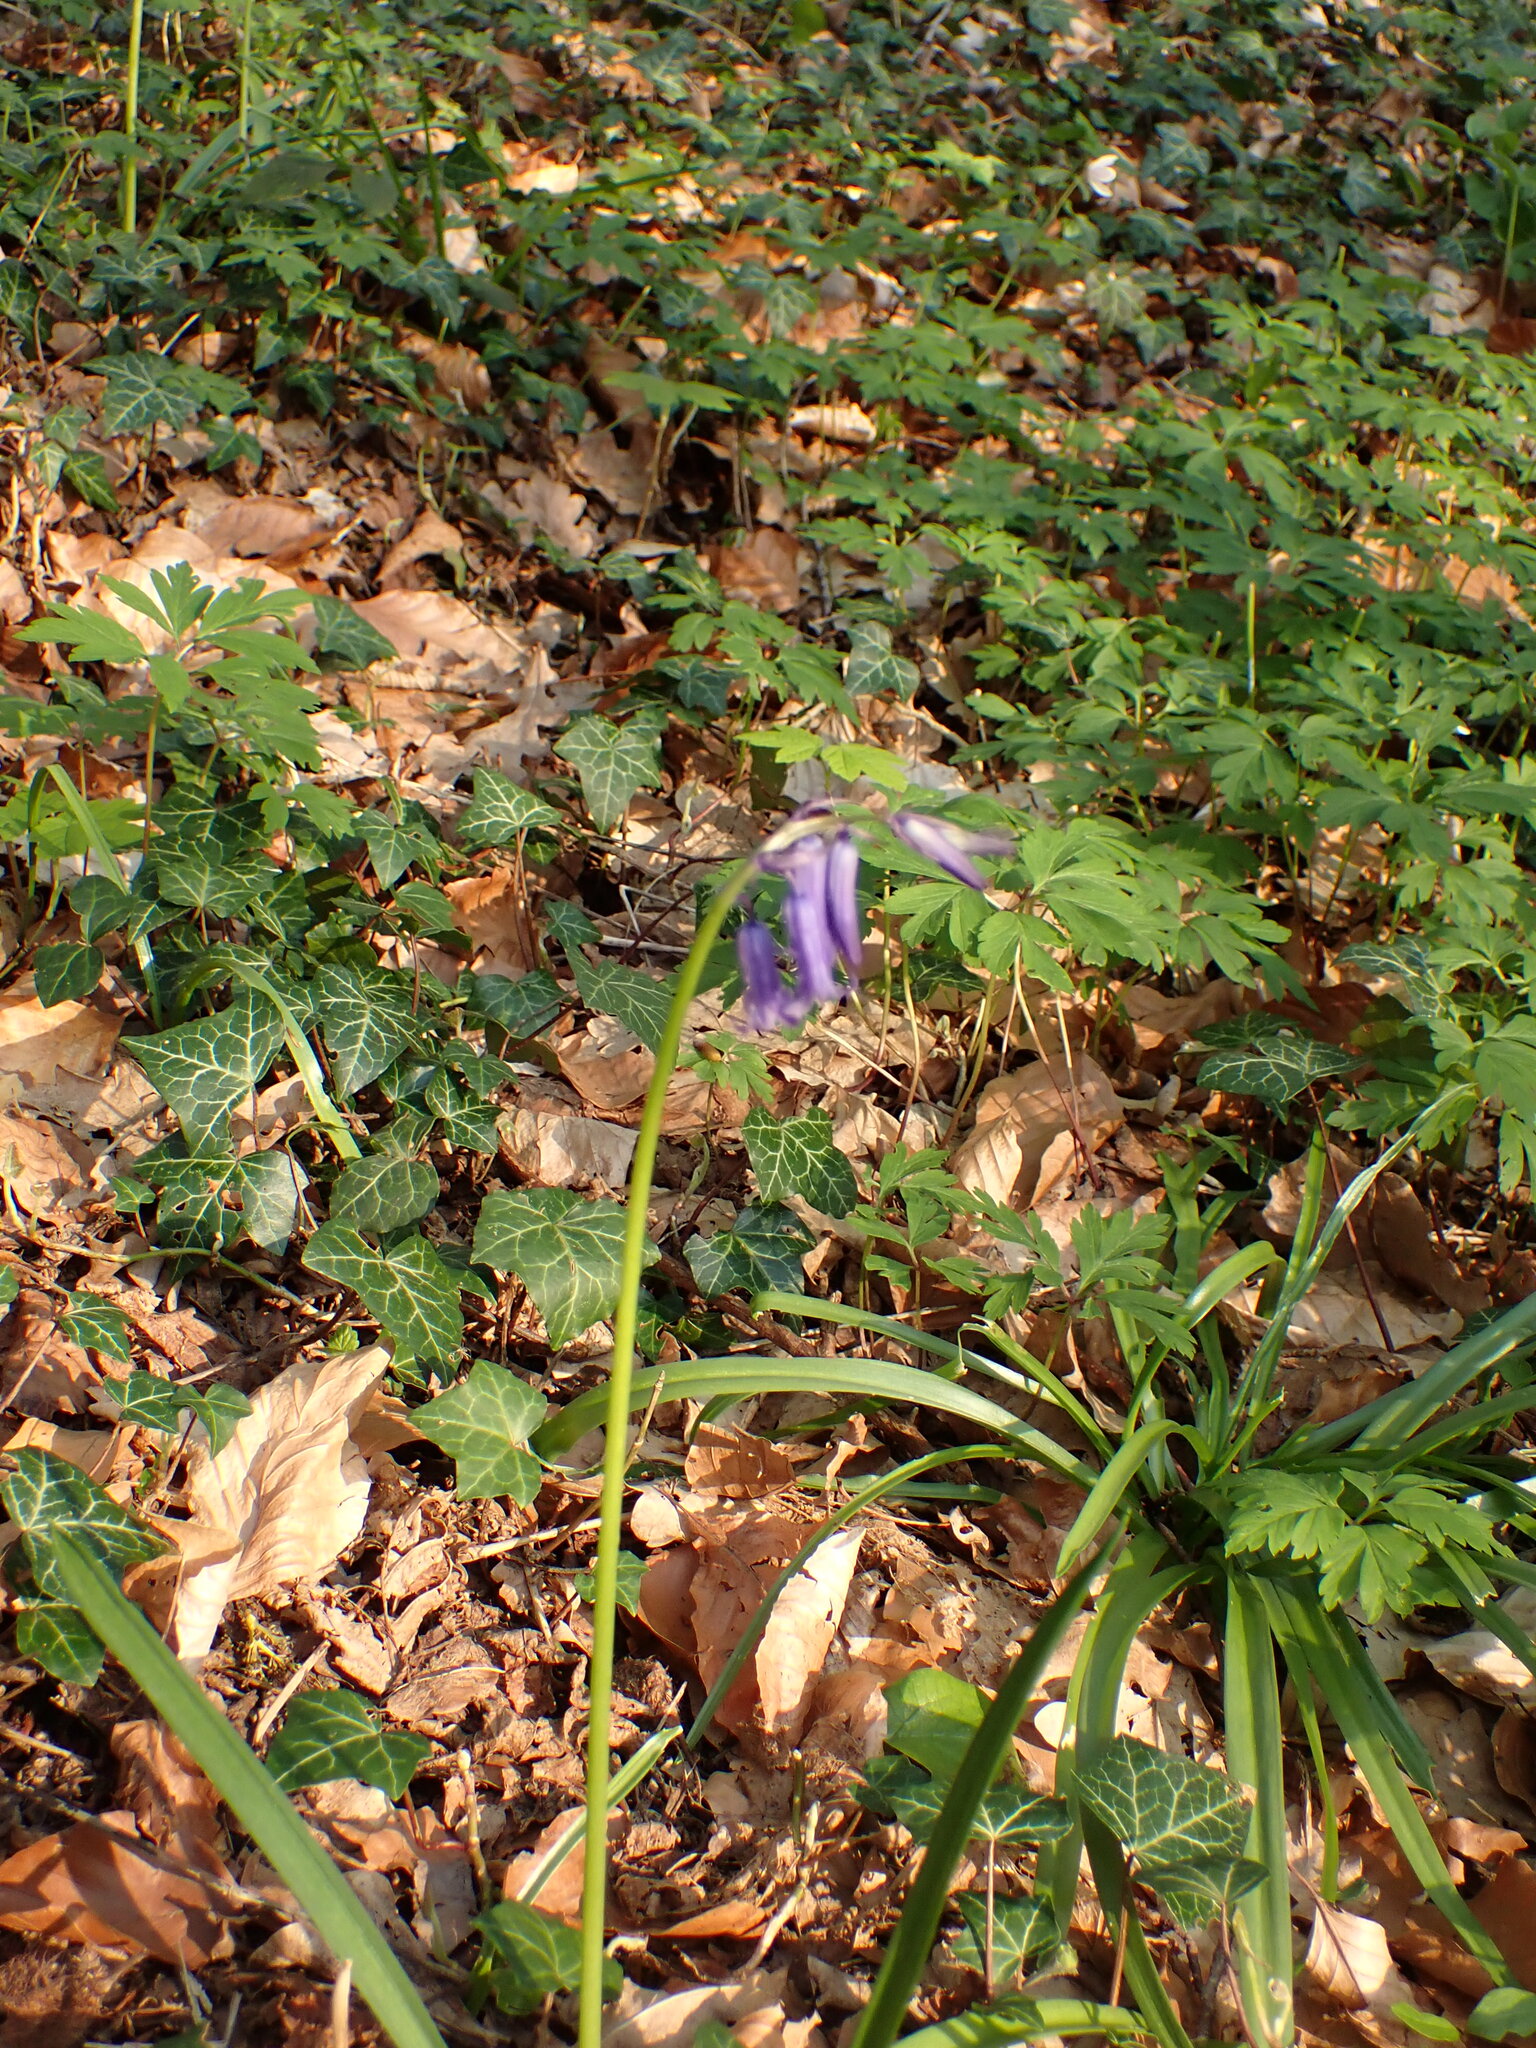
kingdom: Plantae
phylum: Tracheophyta
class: Liliopsida
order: Asparagales
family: Asparagaceae
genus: Hyacinthoides
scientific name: Hyacinthoides non-scripta
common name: Bluebell
